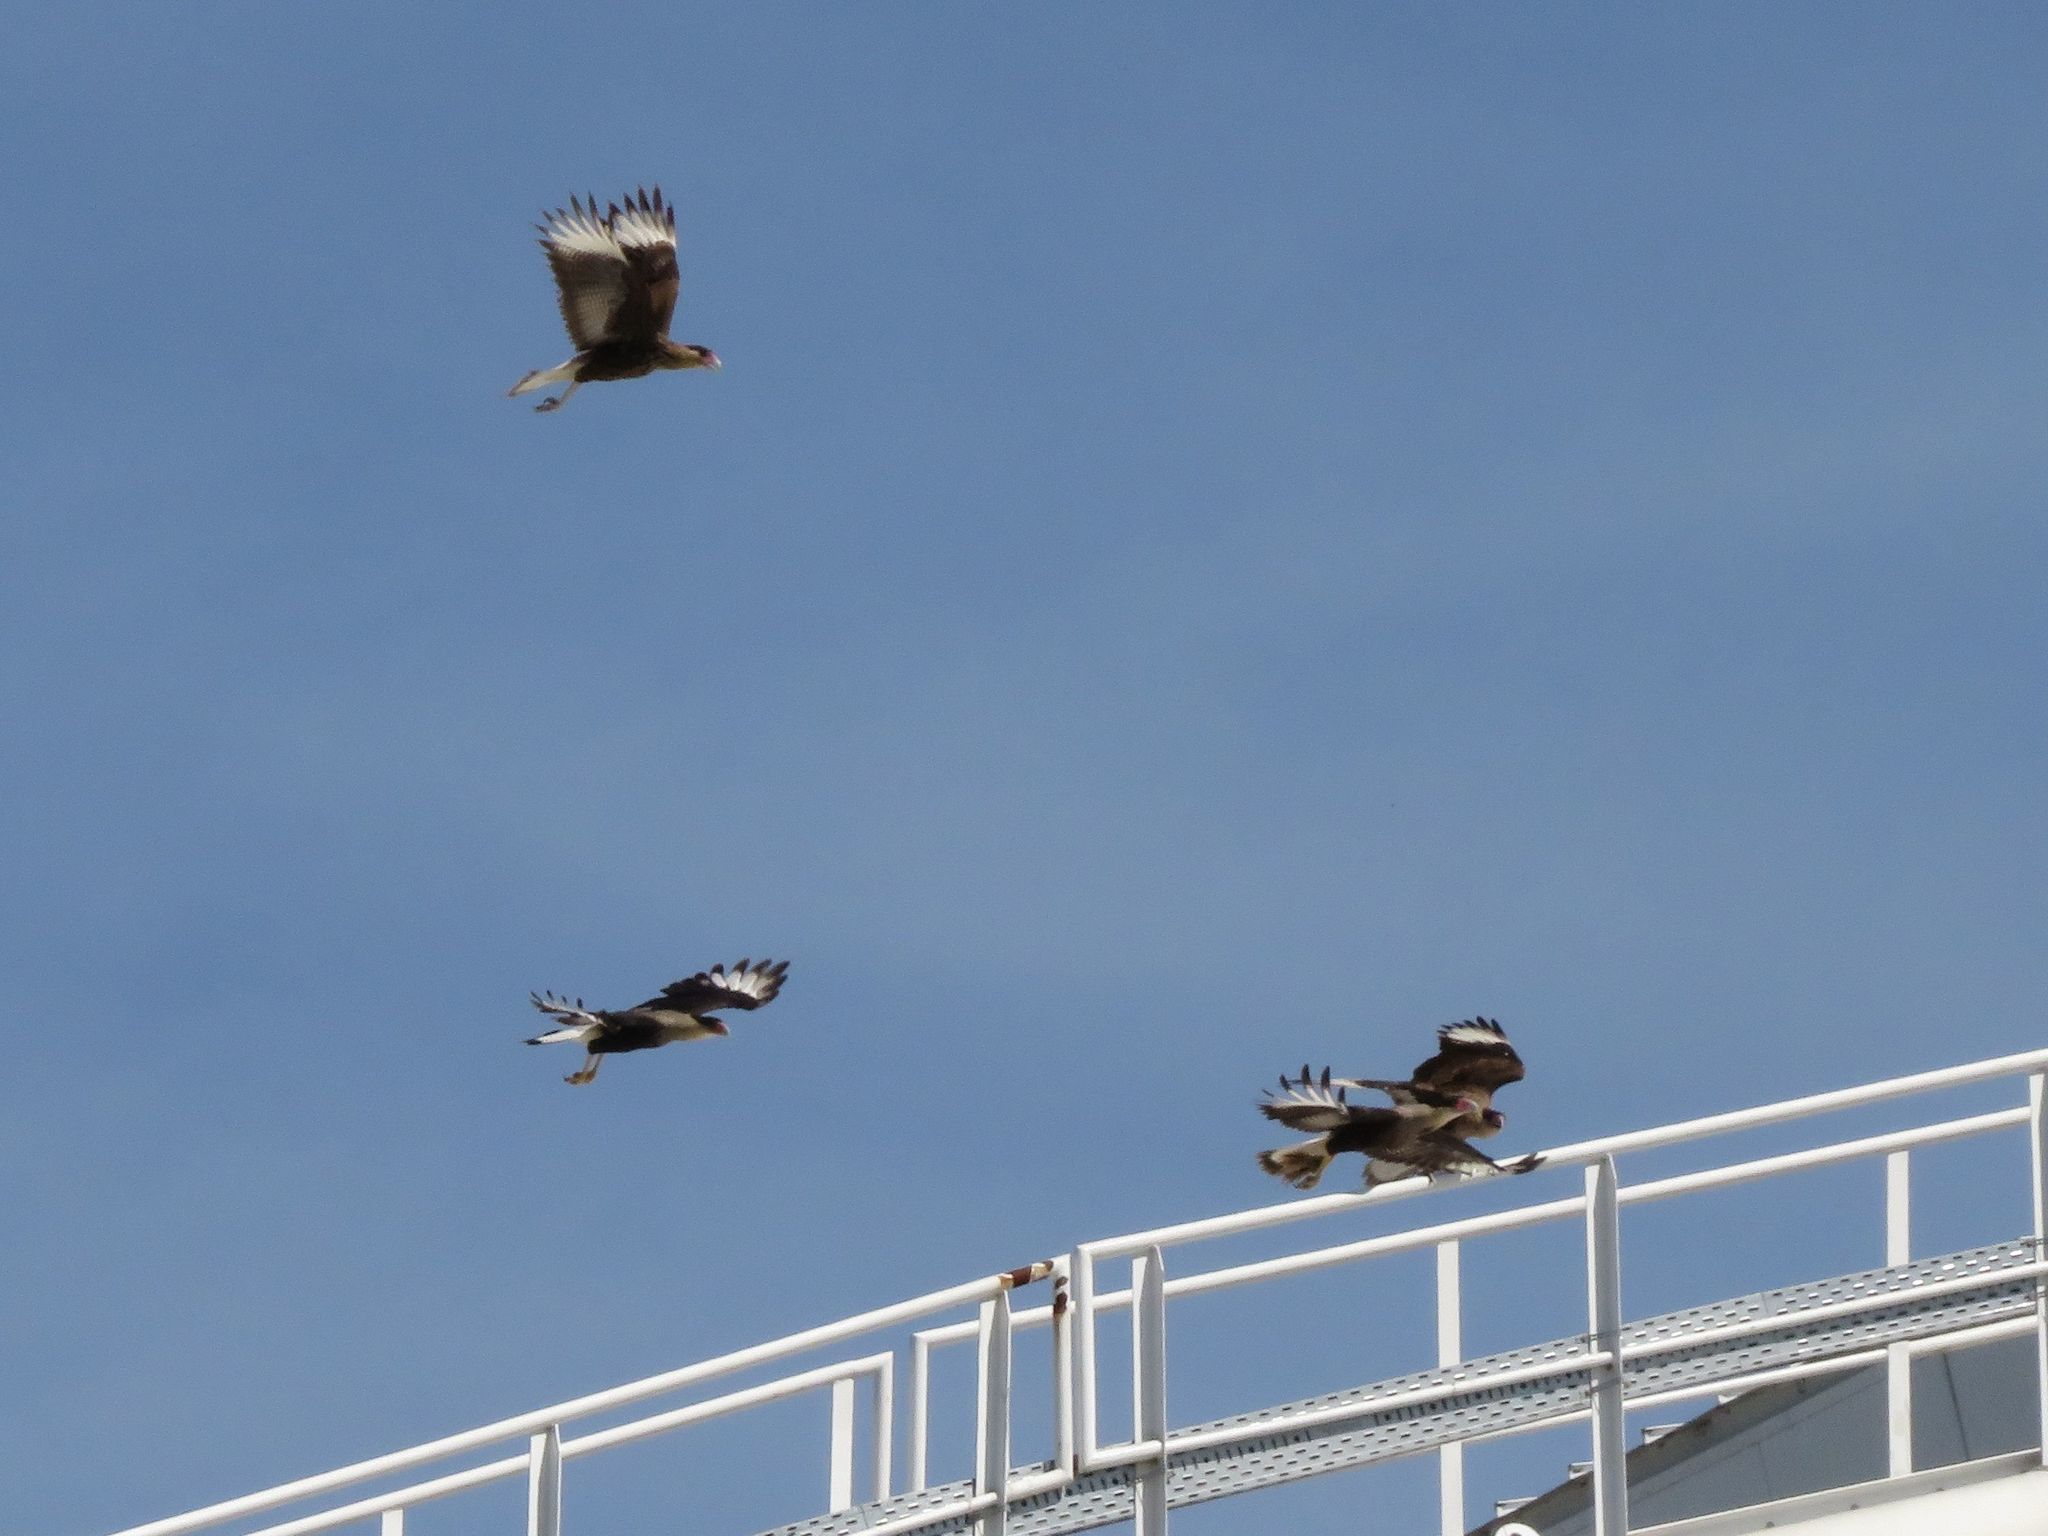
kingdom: Animalia
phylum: Chordata
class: Aves
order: Falconiformes
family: Falconidae
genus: Caracara
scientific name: Caracara plancus
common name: Southern caracara
